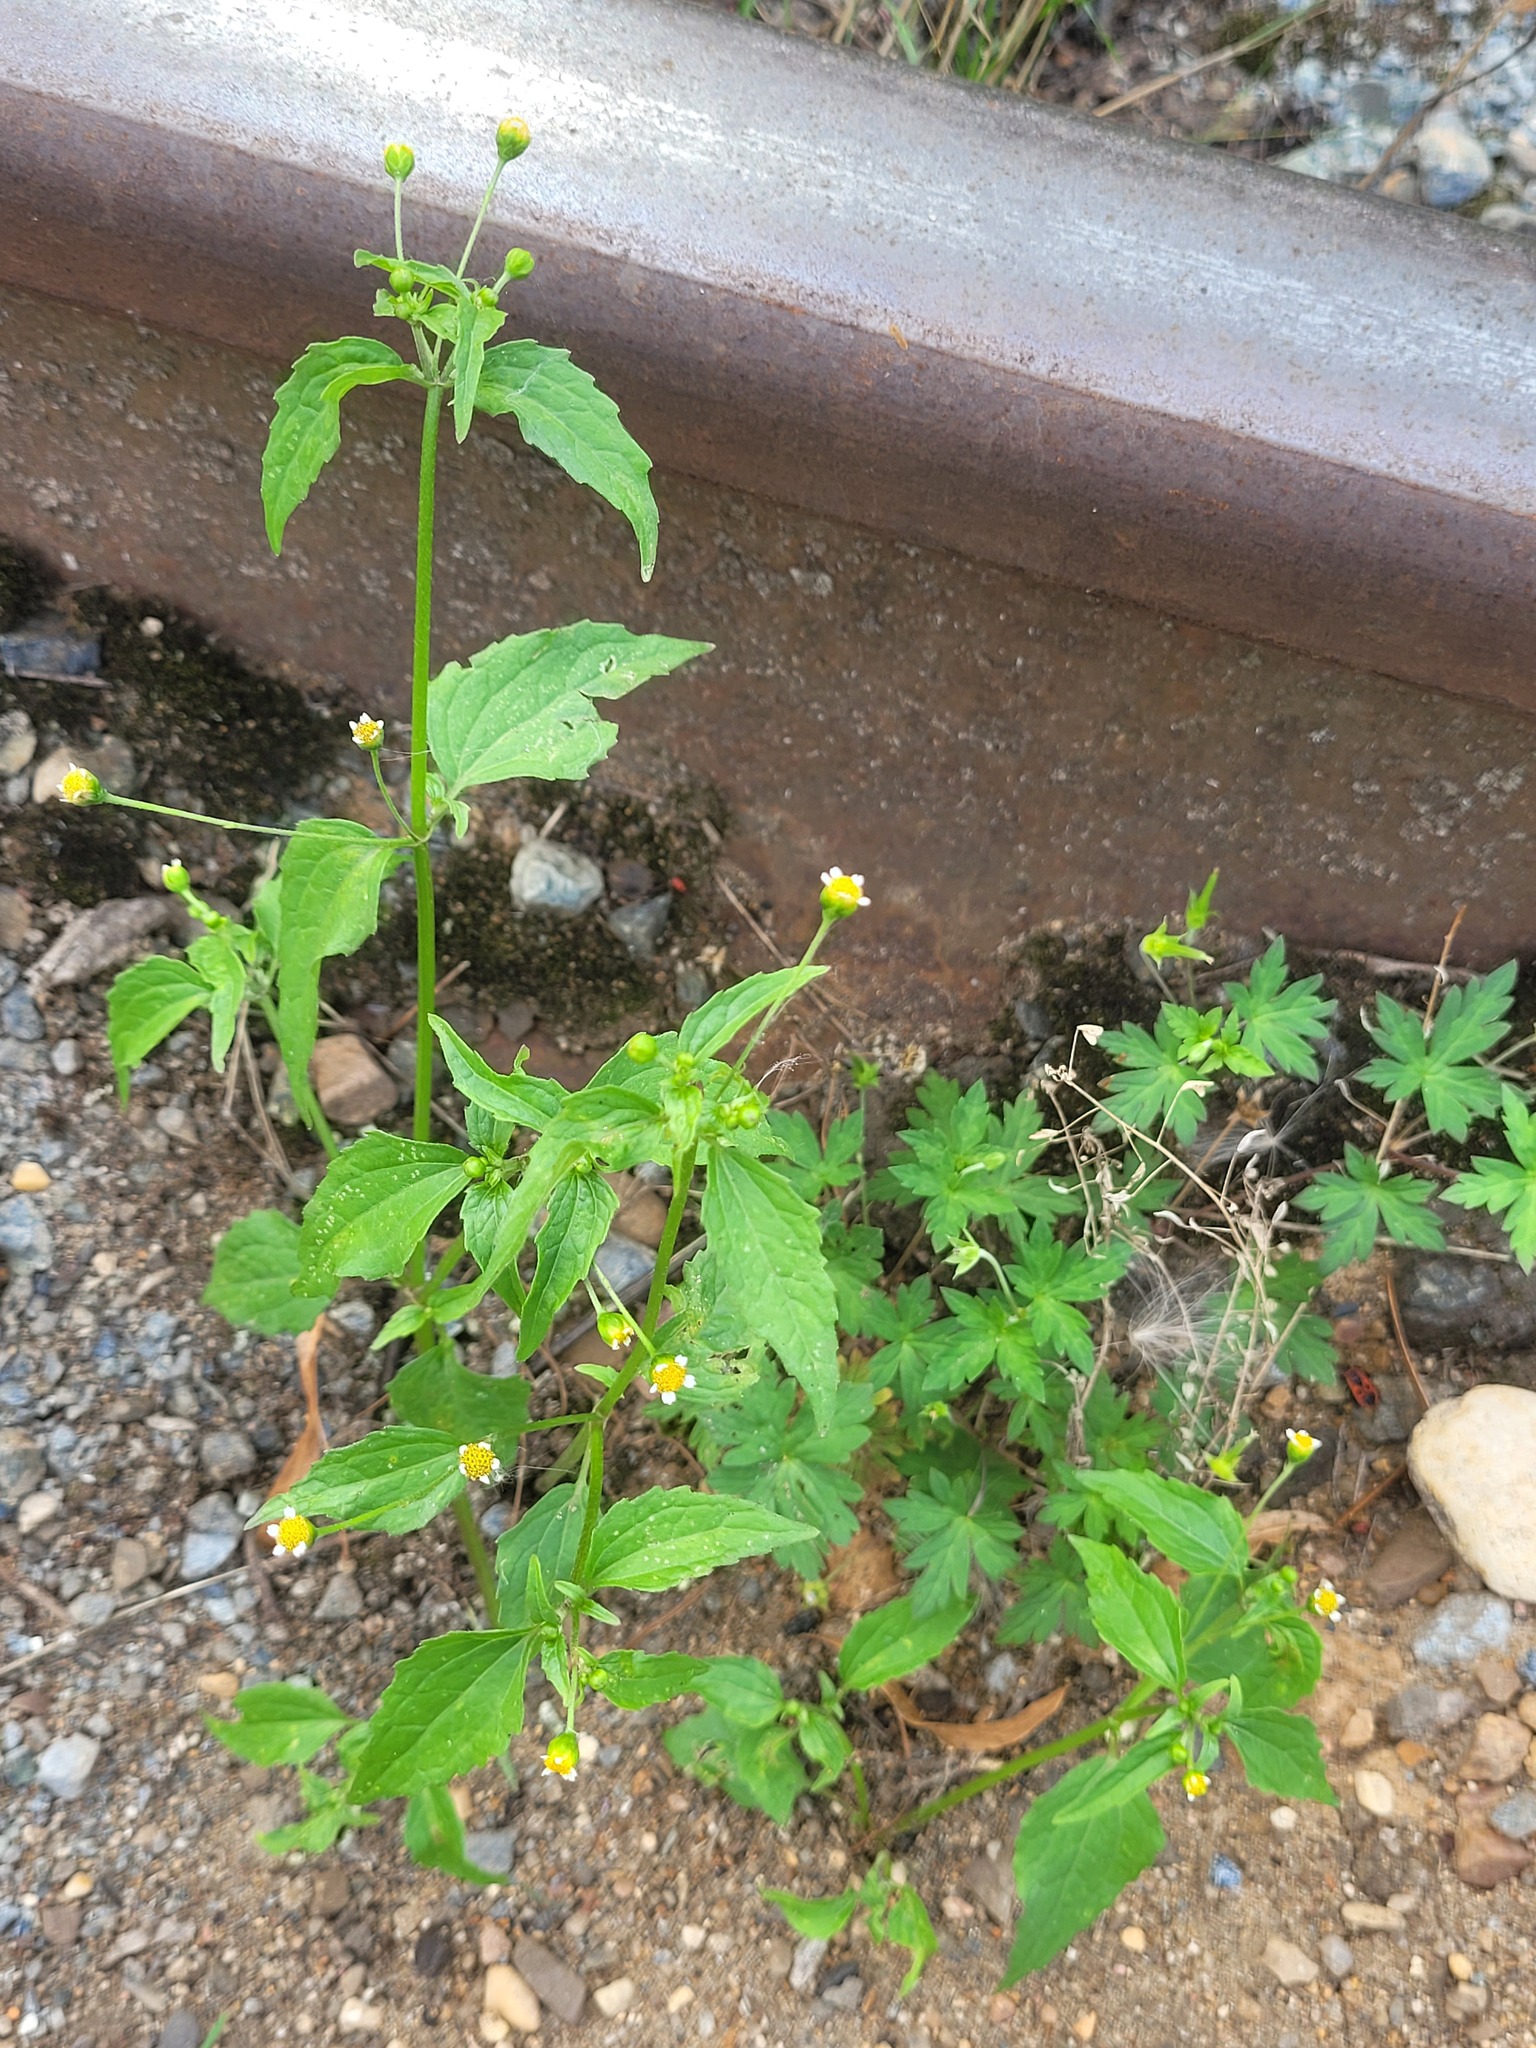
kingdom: Plantae
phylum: Tracheophyta
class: Magnoliopsida
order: Asterales
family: Asteraceae
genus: Galinsoga
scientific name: Galinsoga parviflora
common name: Gallant soldier
